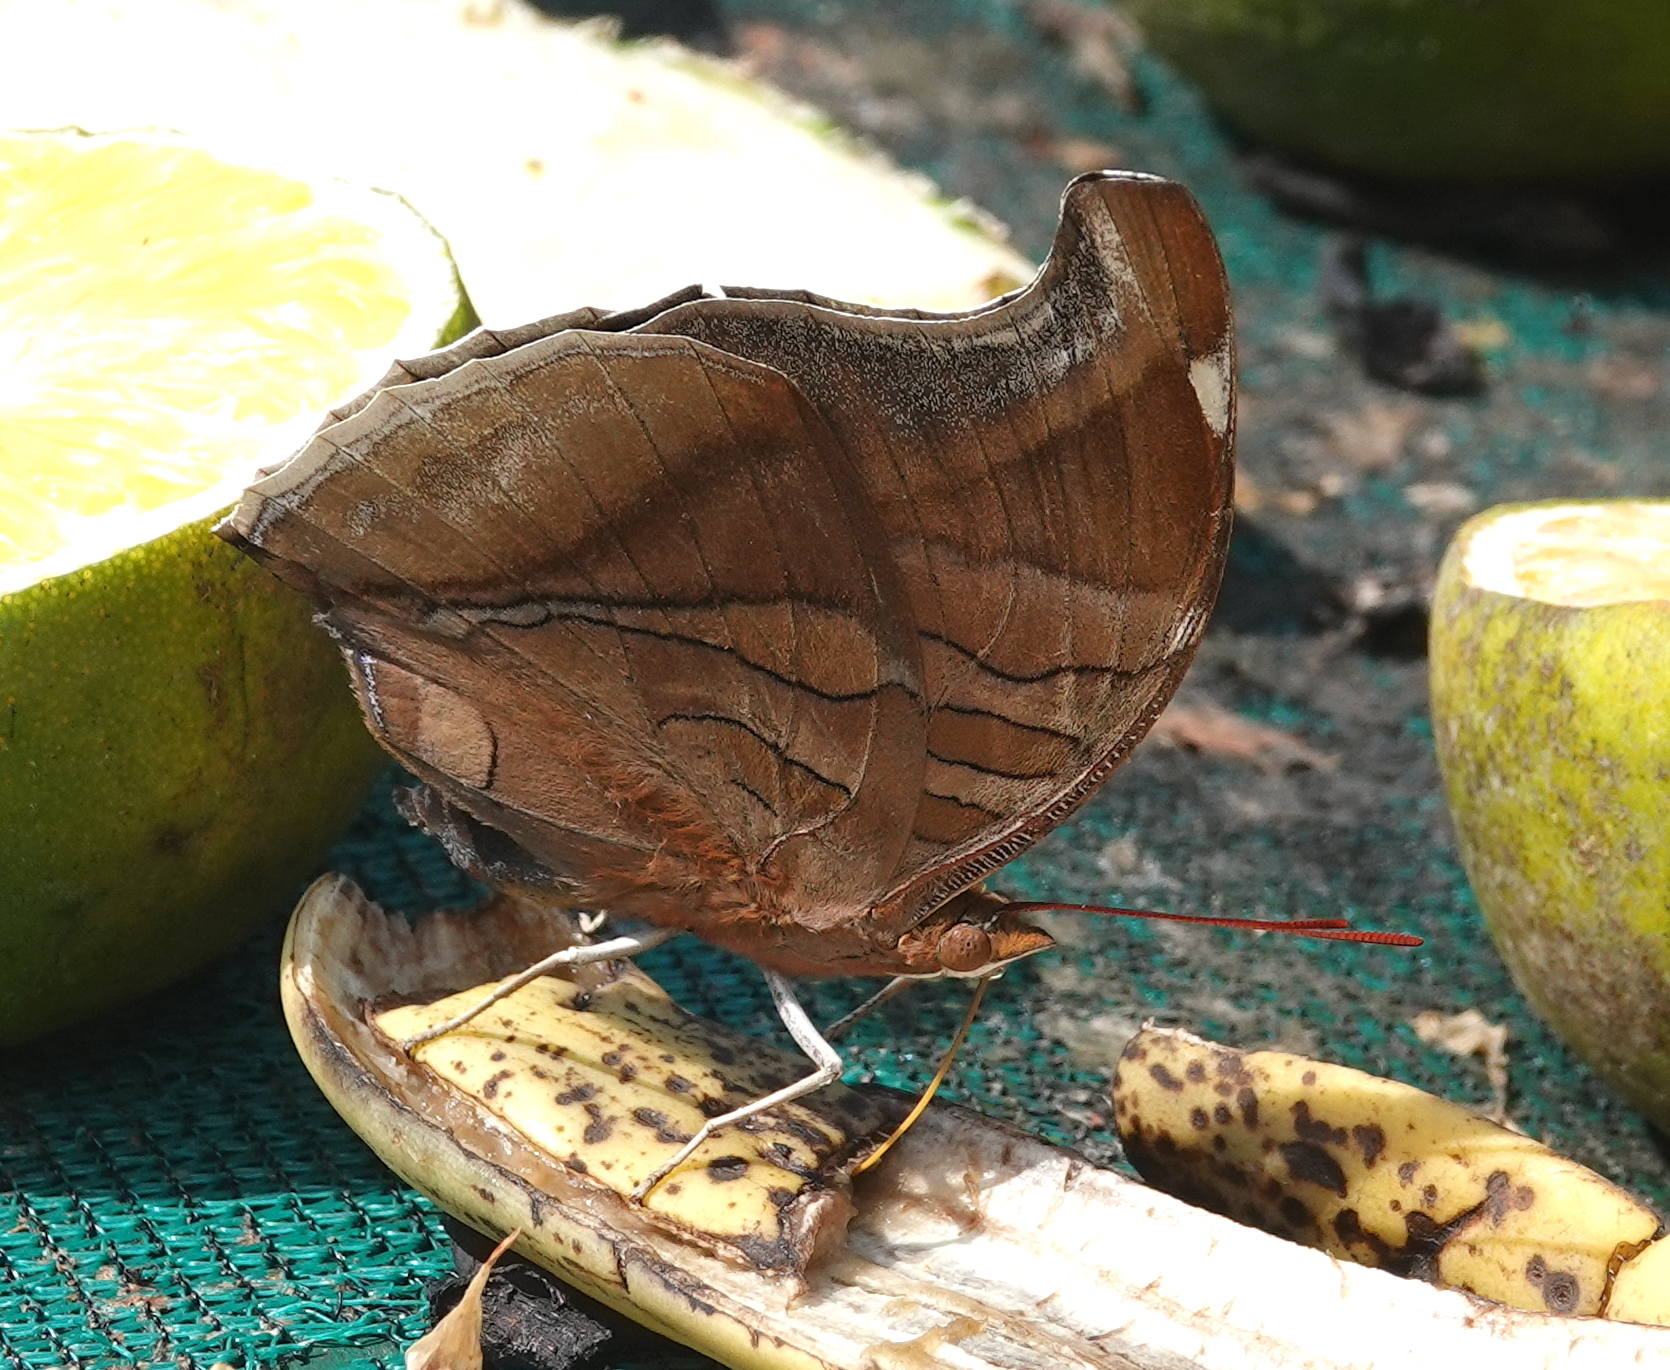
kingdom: Animalia
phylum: Arthropoda
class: Insecta
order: Lepidoptera
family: Nymphalidae
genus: Historis
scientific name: Historis odius
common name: Orion cecropian
